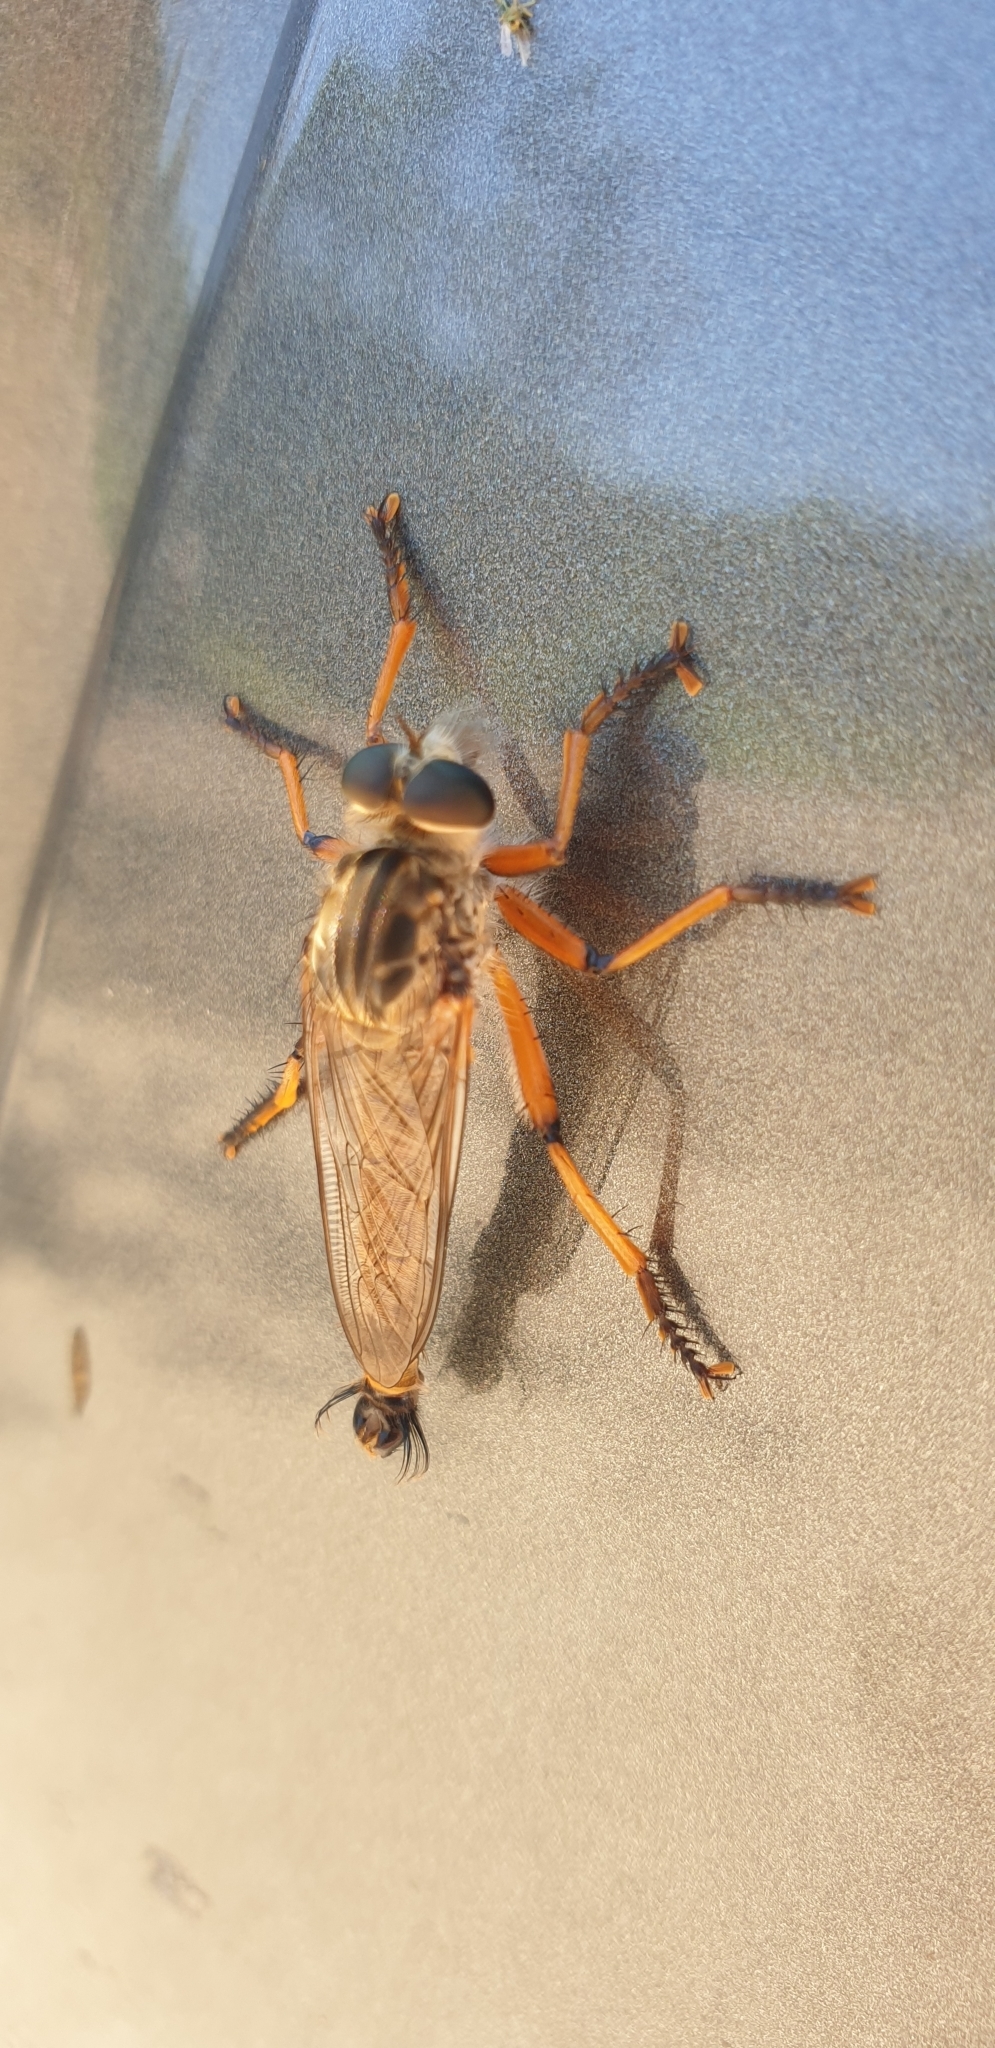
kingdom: Animalia
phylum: Arthropoda
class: Insecta
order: Diptera
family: Asilidae
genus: Colepia
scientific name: Colepia comatacauda
